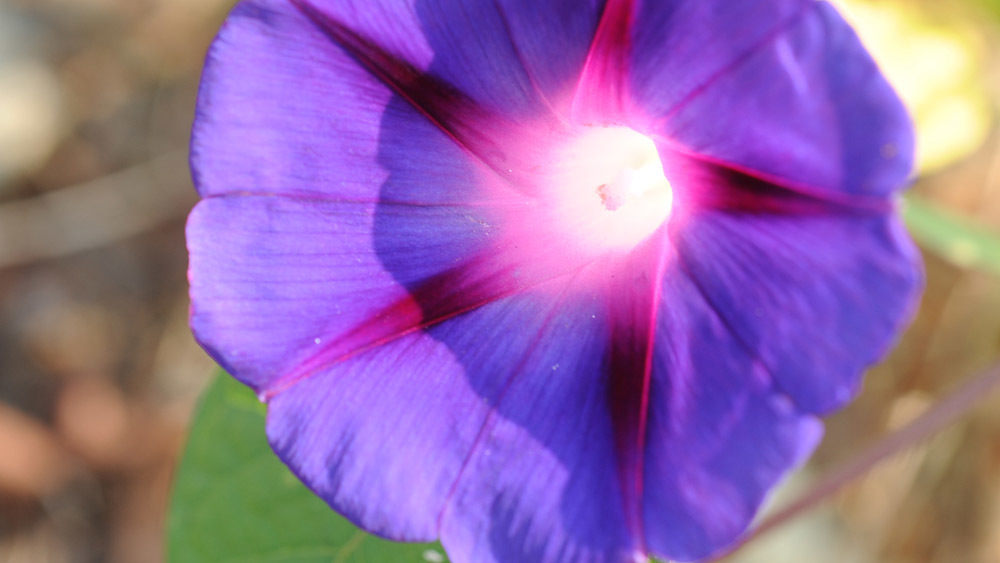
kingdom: Plantae
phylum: Tracheophyta
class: Magnoliopsida
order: Solanales
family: Convolvulaceae
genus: Ipomoea
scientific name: Ipomoea purpurea
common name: Common morning-glory
